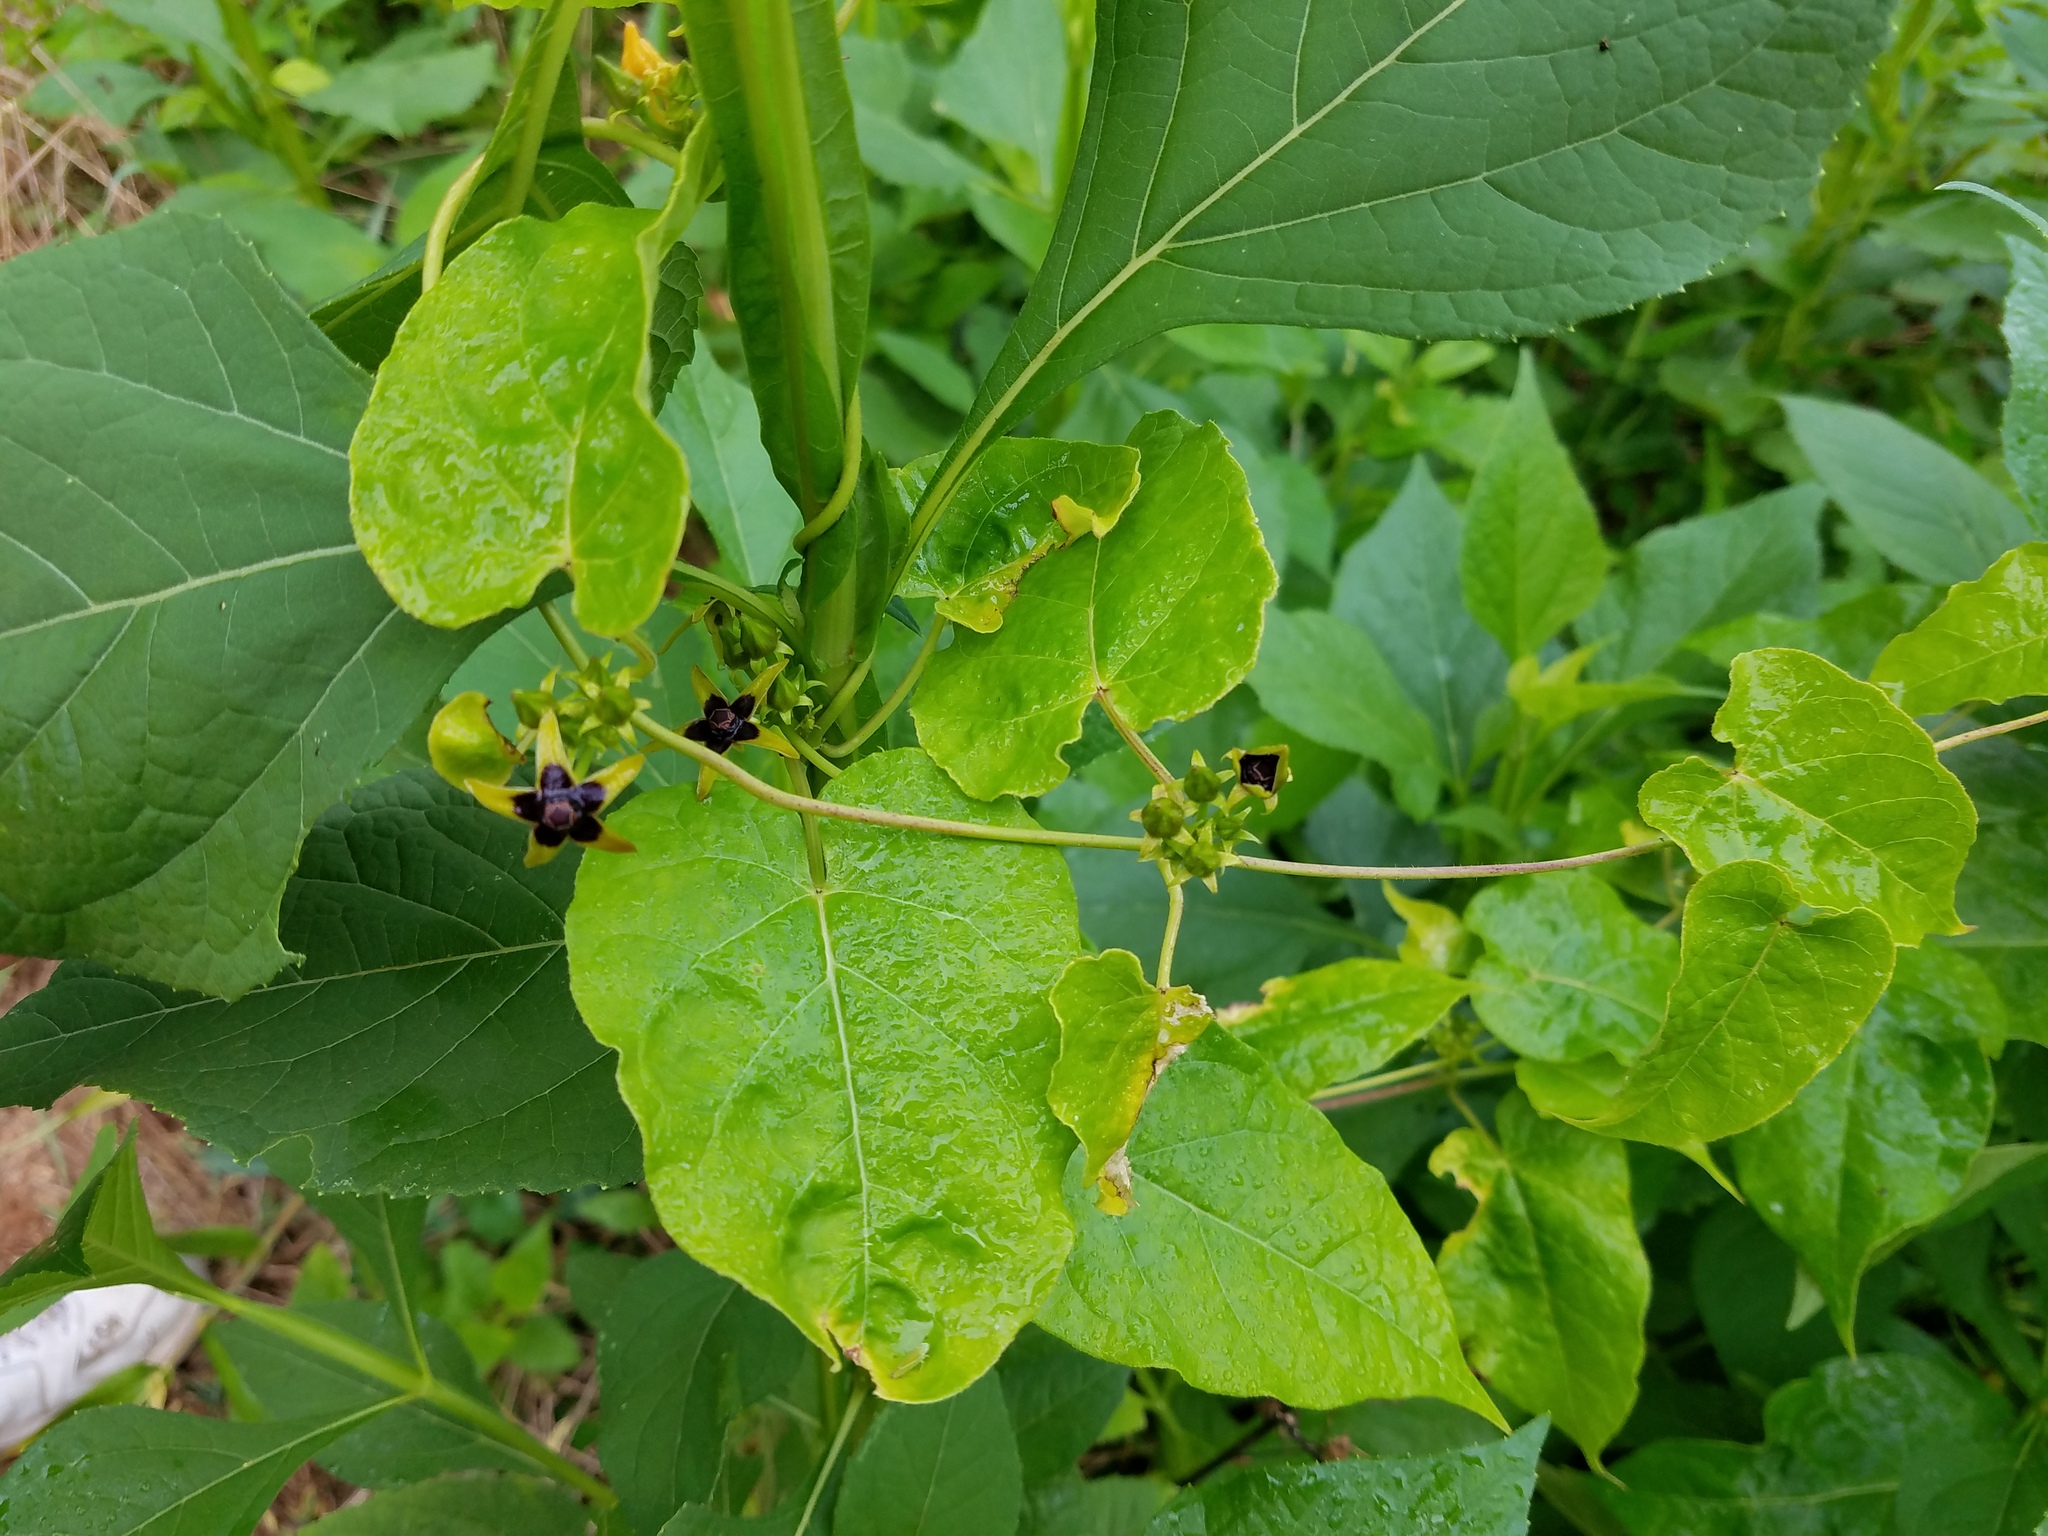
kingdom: Plantae
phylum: Tracheophyta
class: Magnoliopsida
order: Gentianales
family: Apocynaceae
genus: Gonolobus
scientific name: Gonolobus suberosus
